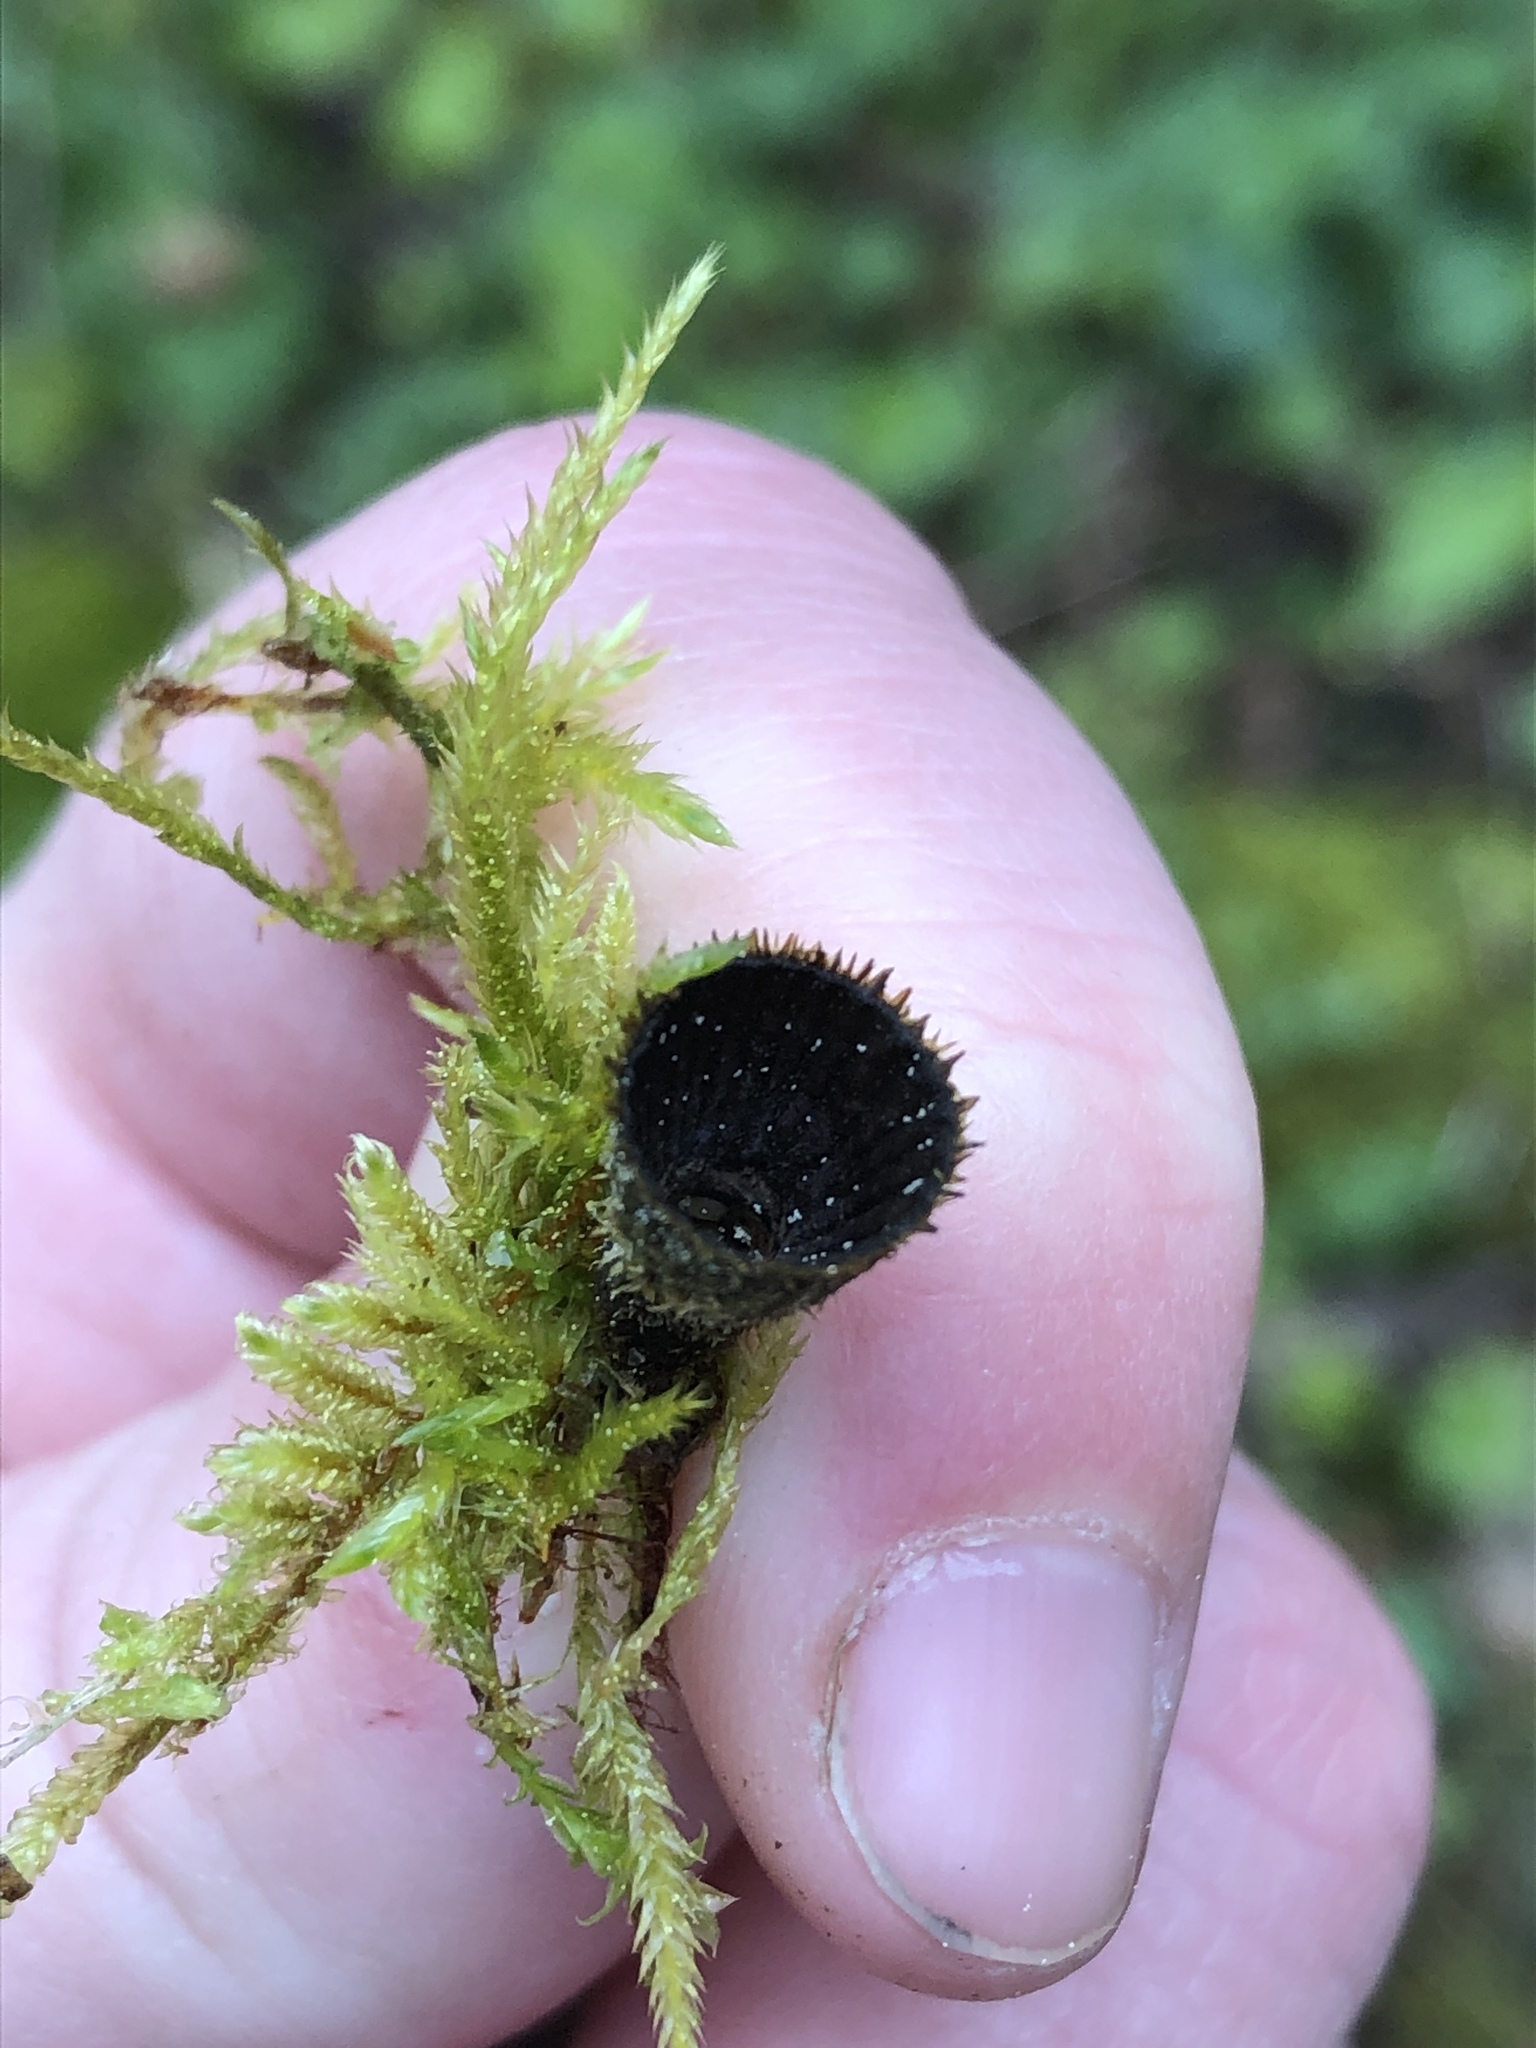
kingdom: Fungi
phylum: Basidiomycota
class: Agaricomycetes
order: Agaricales
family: Agaricaceae
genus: Cyathus
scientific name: Cyathus striatus
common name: Fluted bird's nest
